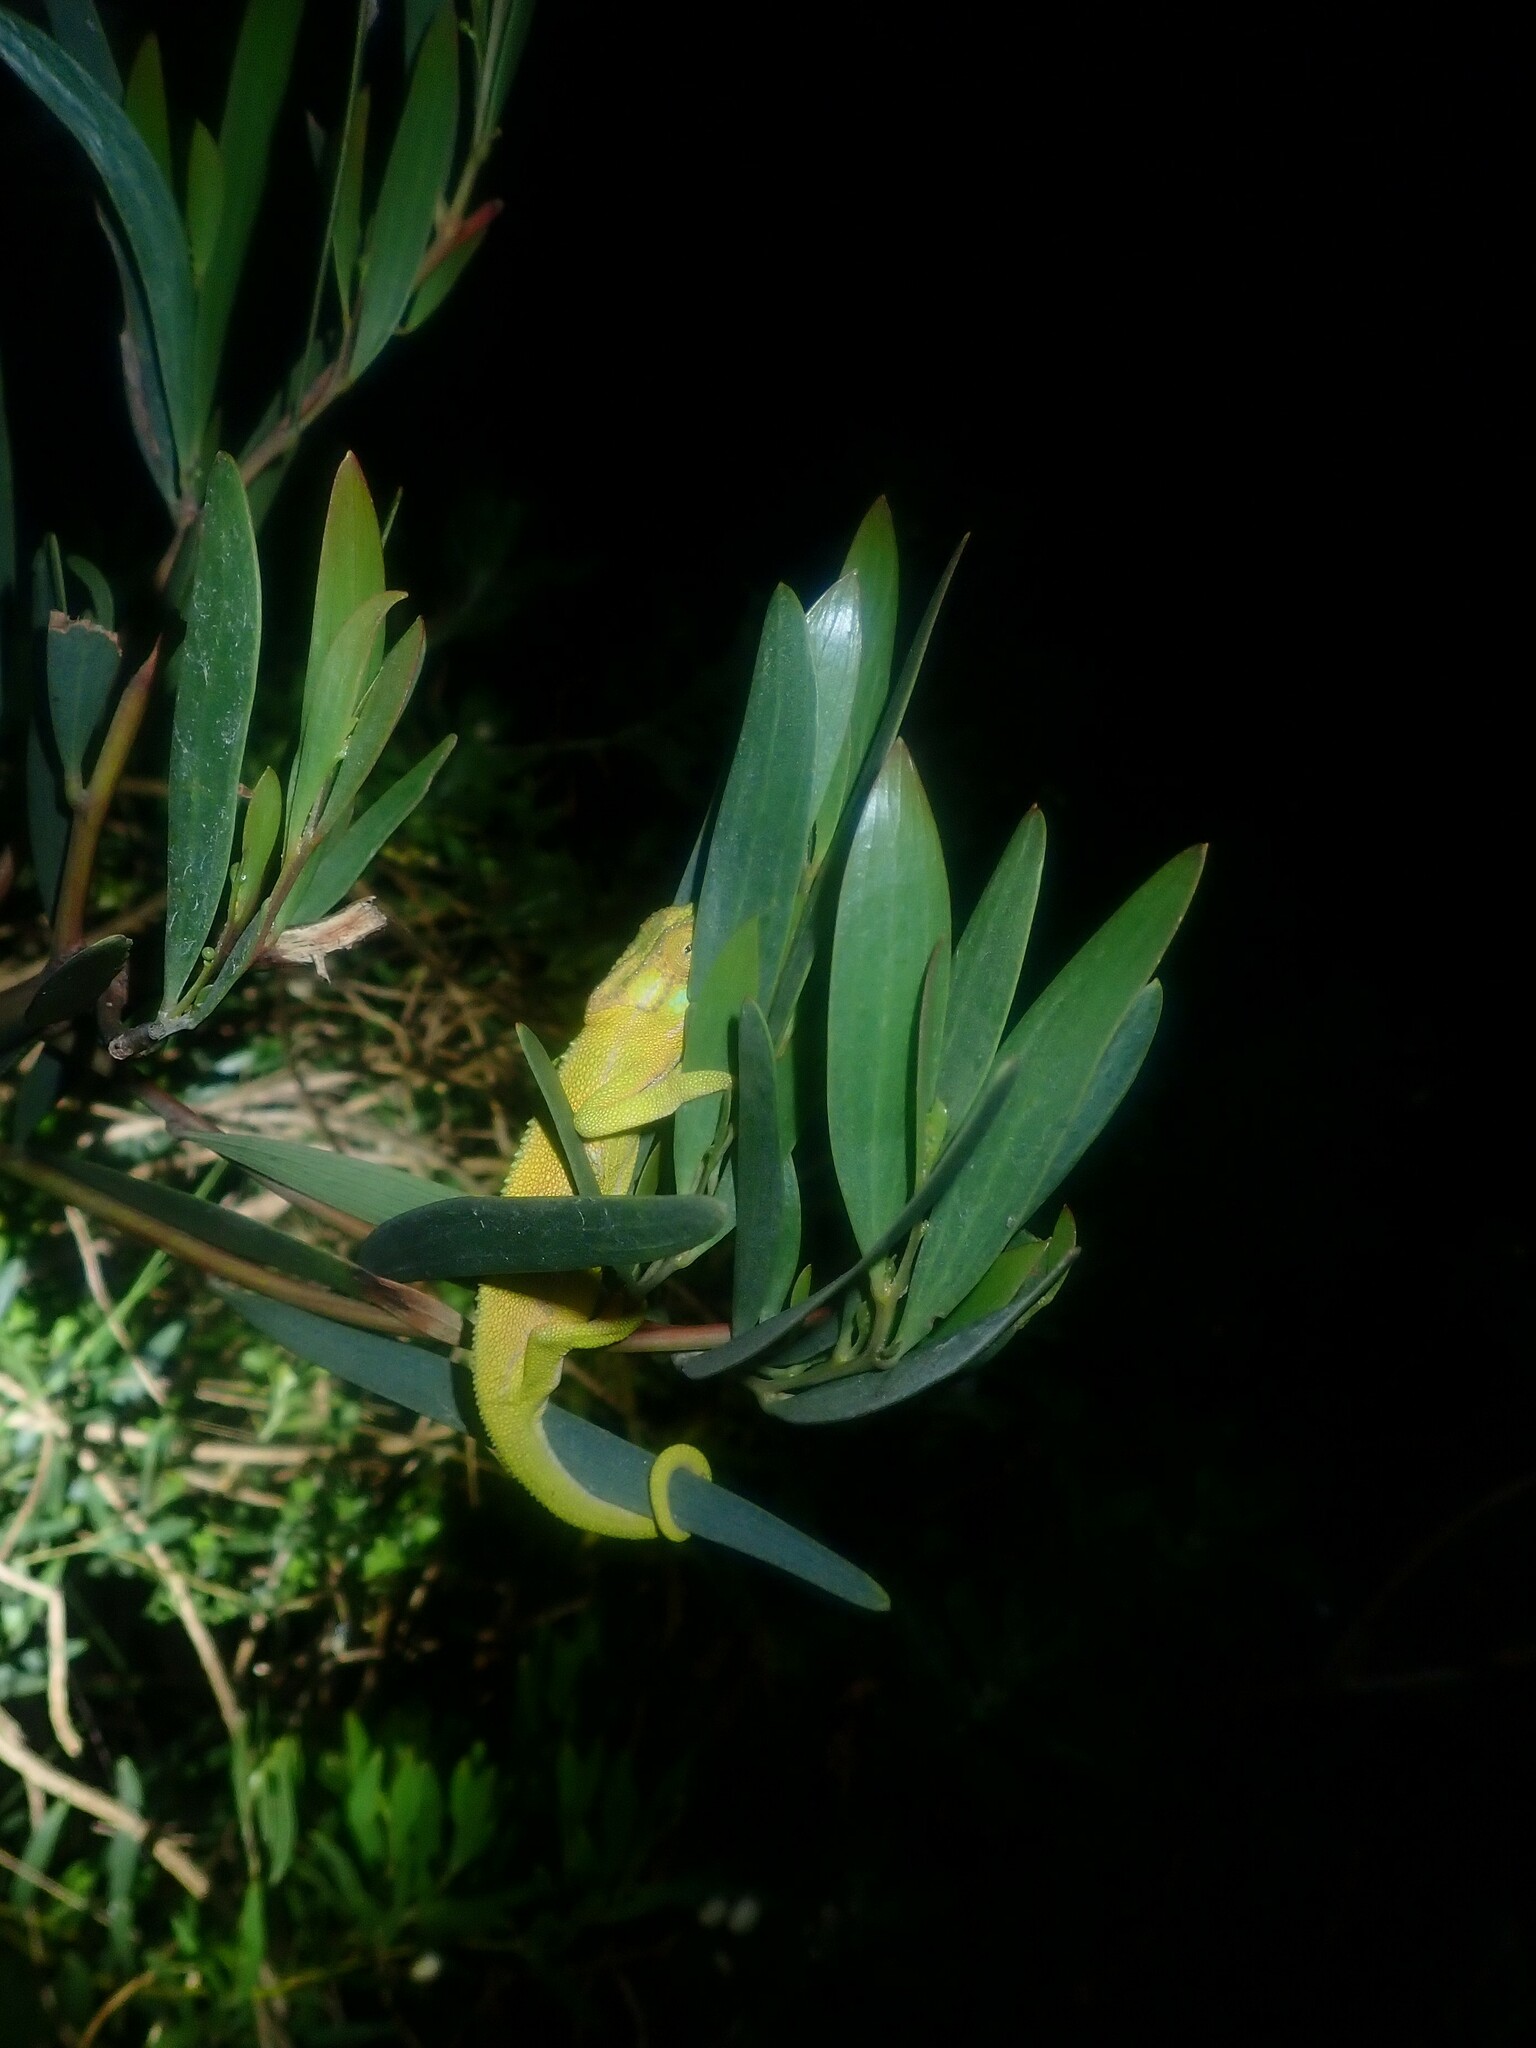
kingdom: Animalia
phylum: Chordata
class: Squamata
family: Chamaeleonidae
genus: Bradypodion
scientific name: Bradypodion pumilum
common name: Cape dwarf chameleon
